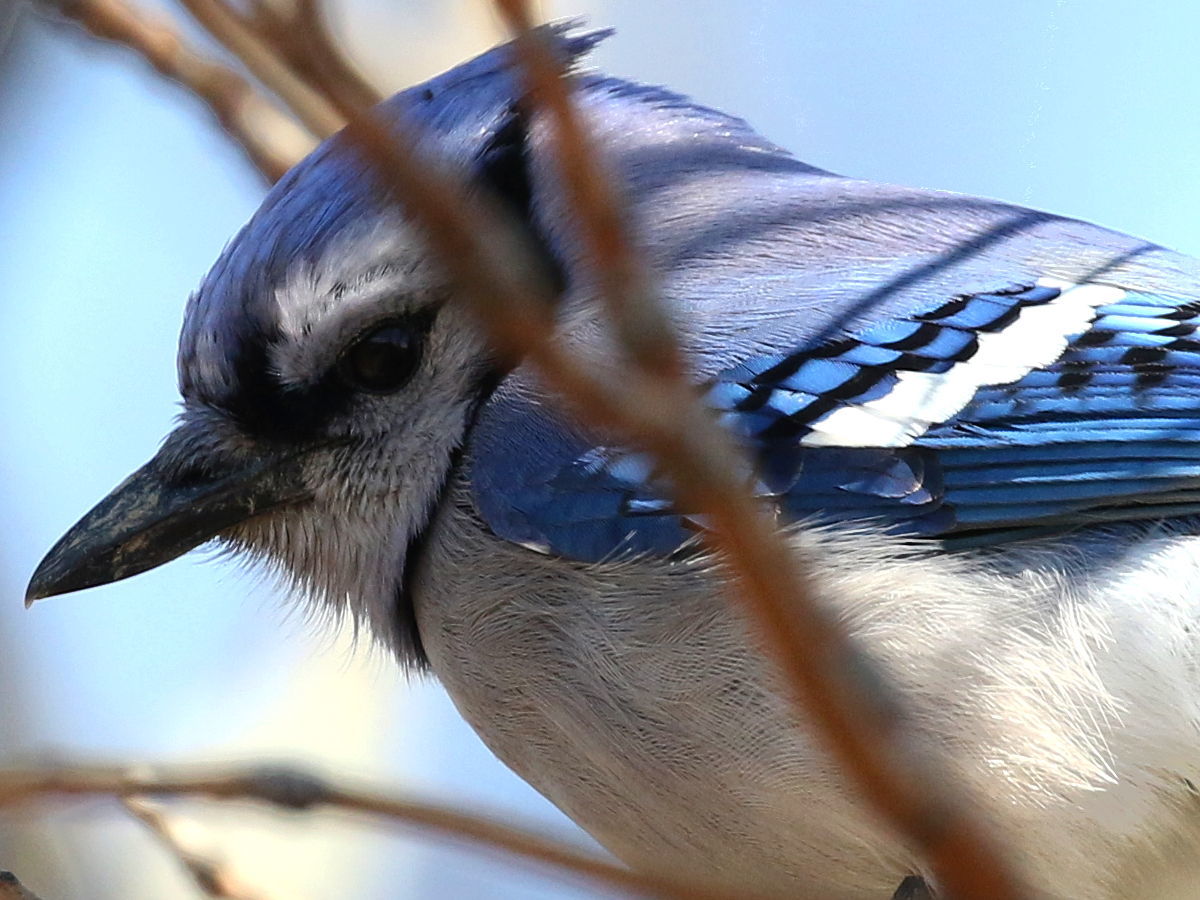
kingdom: Animalia
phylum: Chordata
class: Aves
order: Passeriformes
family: Corvidae
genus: Cyanocitta
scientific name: Cyanocitta cristata
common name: Blue jay
